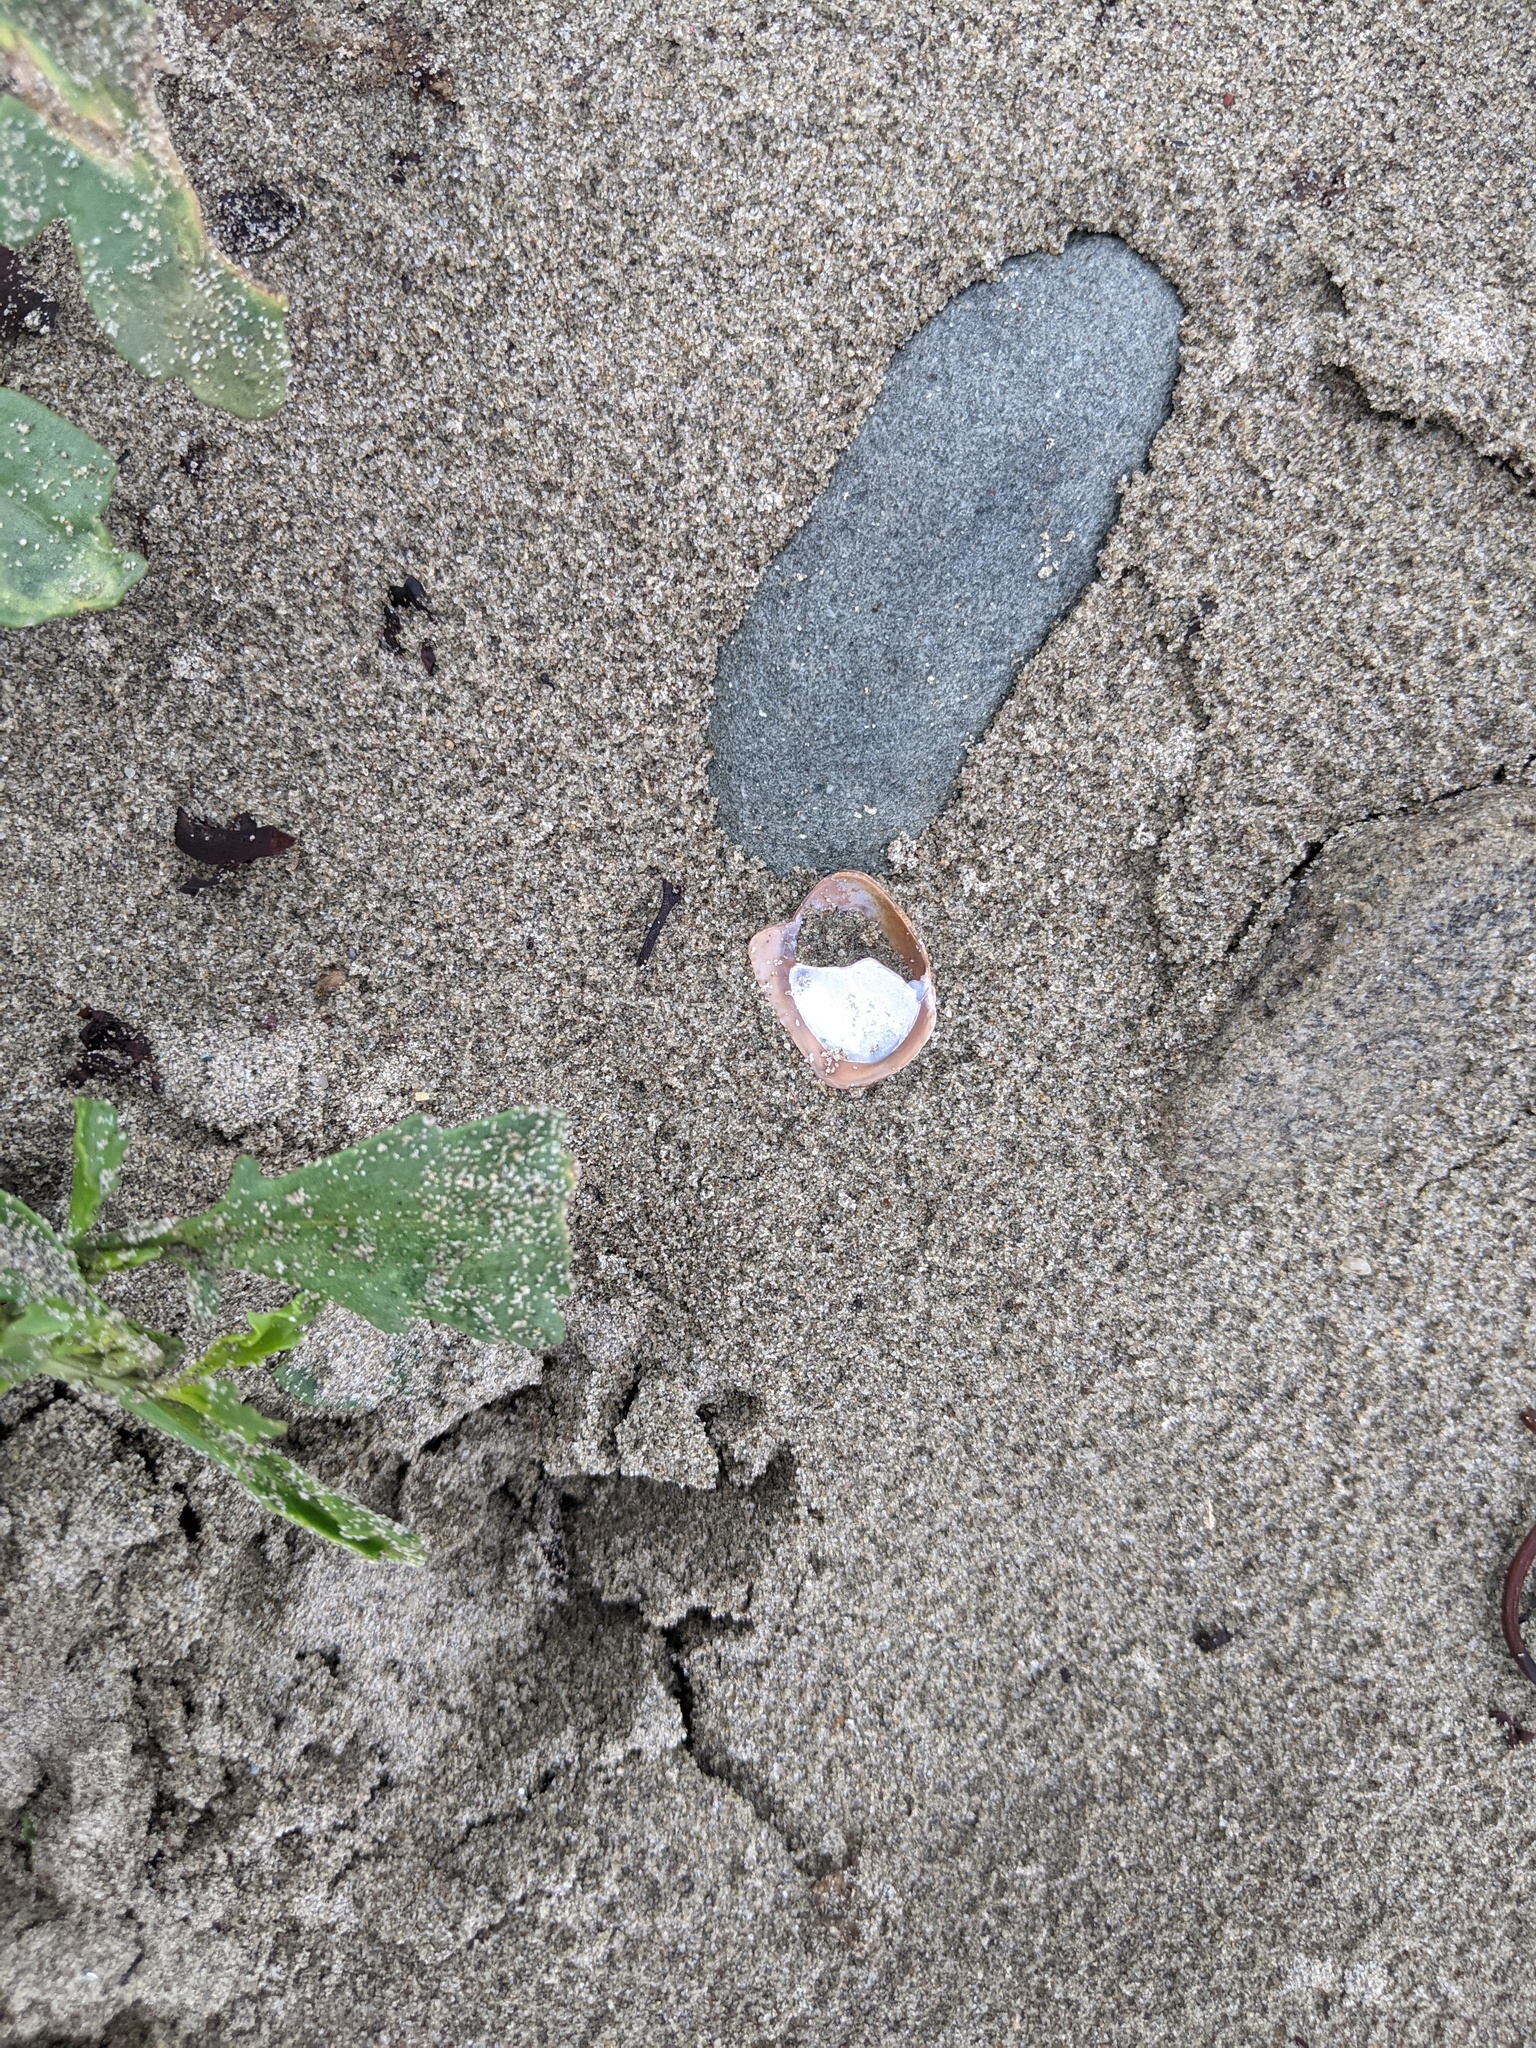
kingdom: Animalia
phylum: Mollusca
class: Gastropoda
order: Littorinimorpha
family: Calyptraeidae
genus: Crepidula
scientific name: Crepidula fornicata
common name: Slipper limpet
